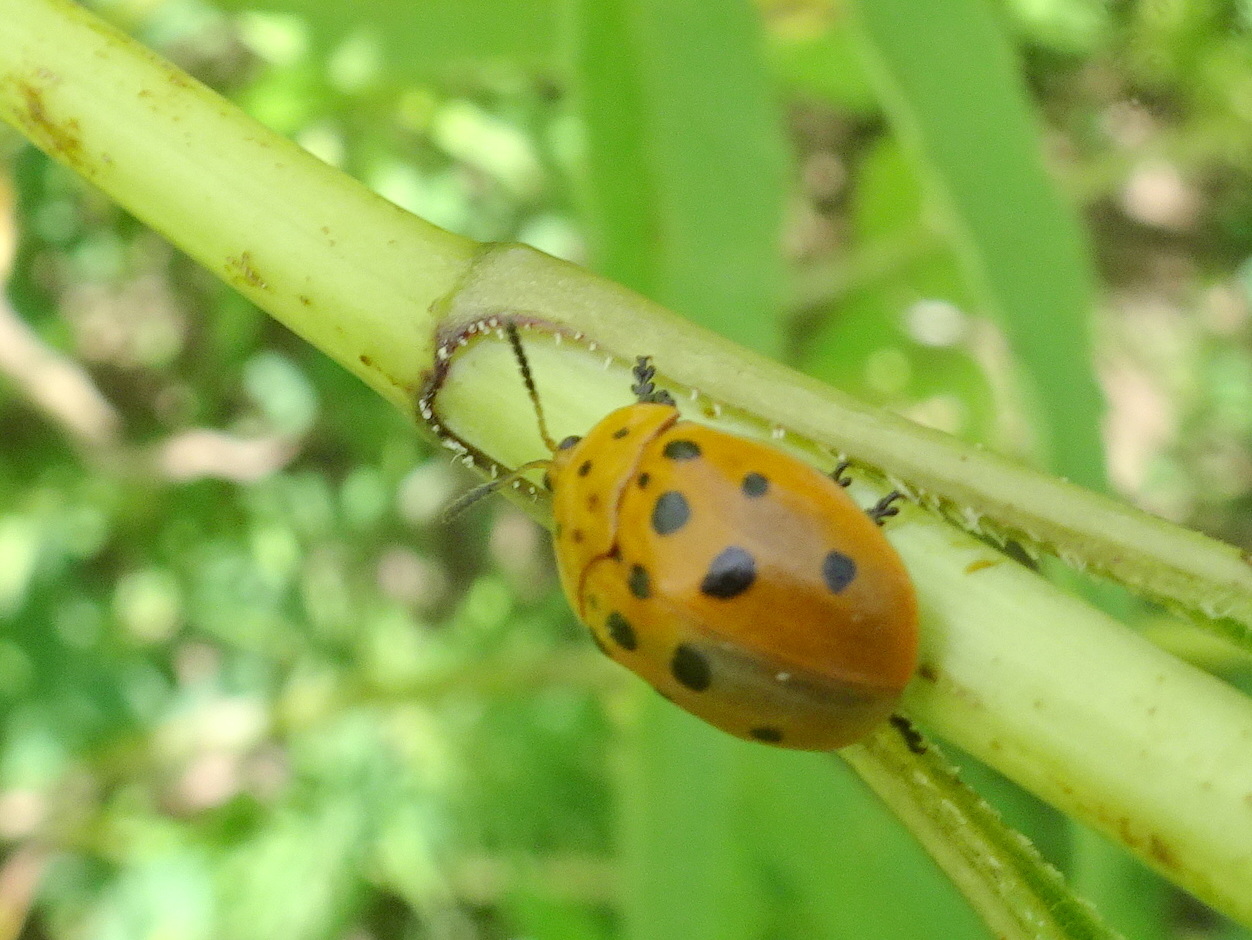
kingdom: Animalia
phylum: Arthropoda
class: Insecta
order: Coleoptera
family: Chrysomelidae
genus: Chelymorpha
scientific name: Chelymorpha cassidea
